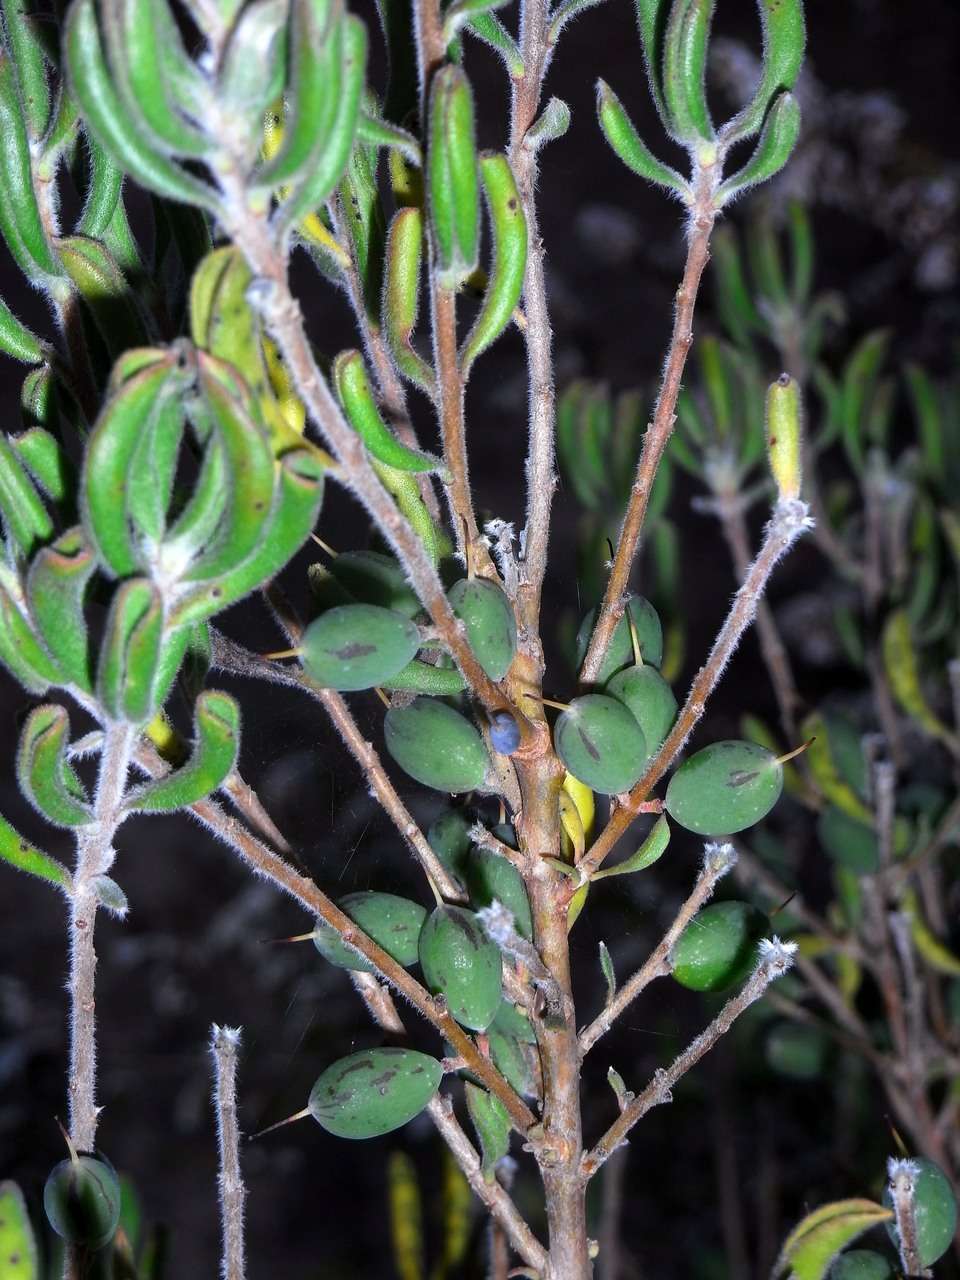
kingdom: Plantae
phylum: Tracheophyta
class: Magnoliopsida
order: Proteales
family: Proteaceae
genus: Persoonia
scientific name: Persoonia rigida
